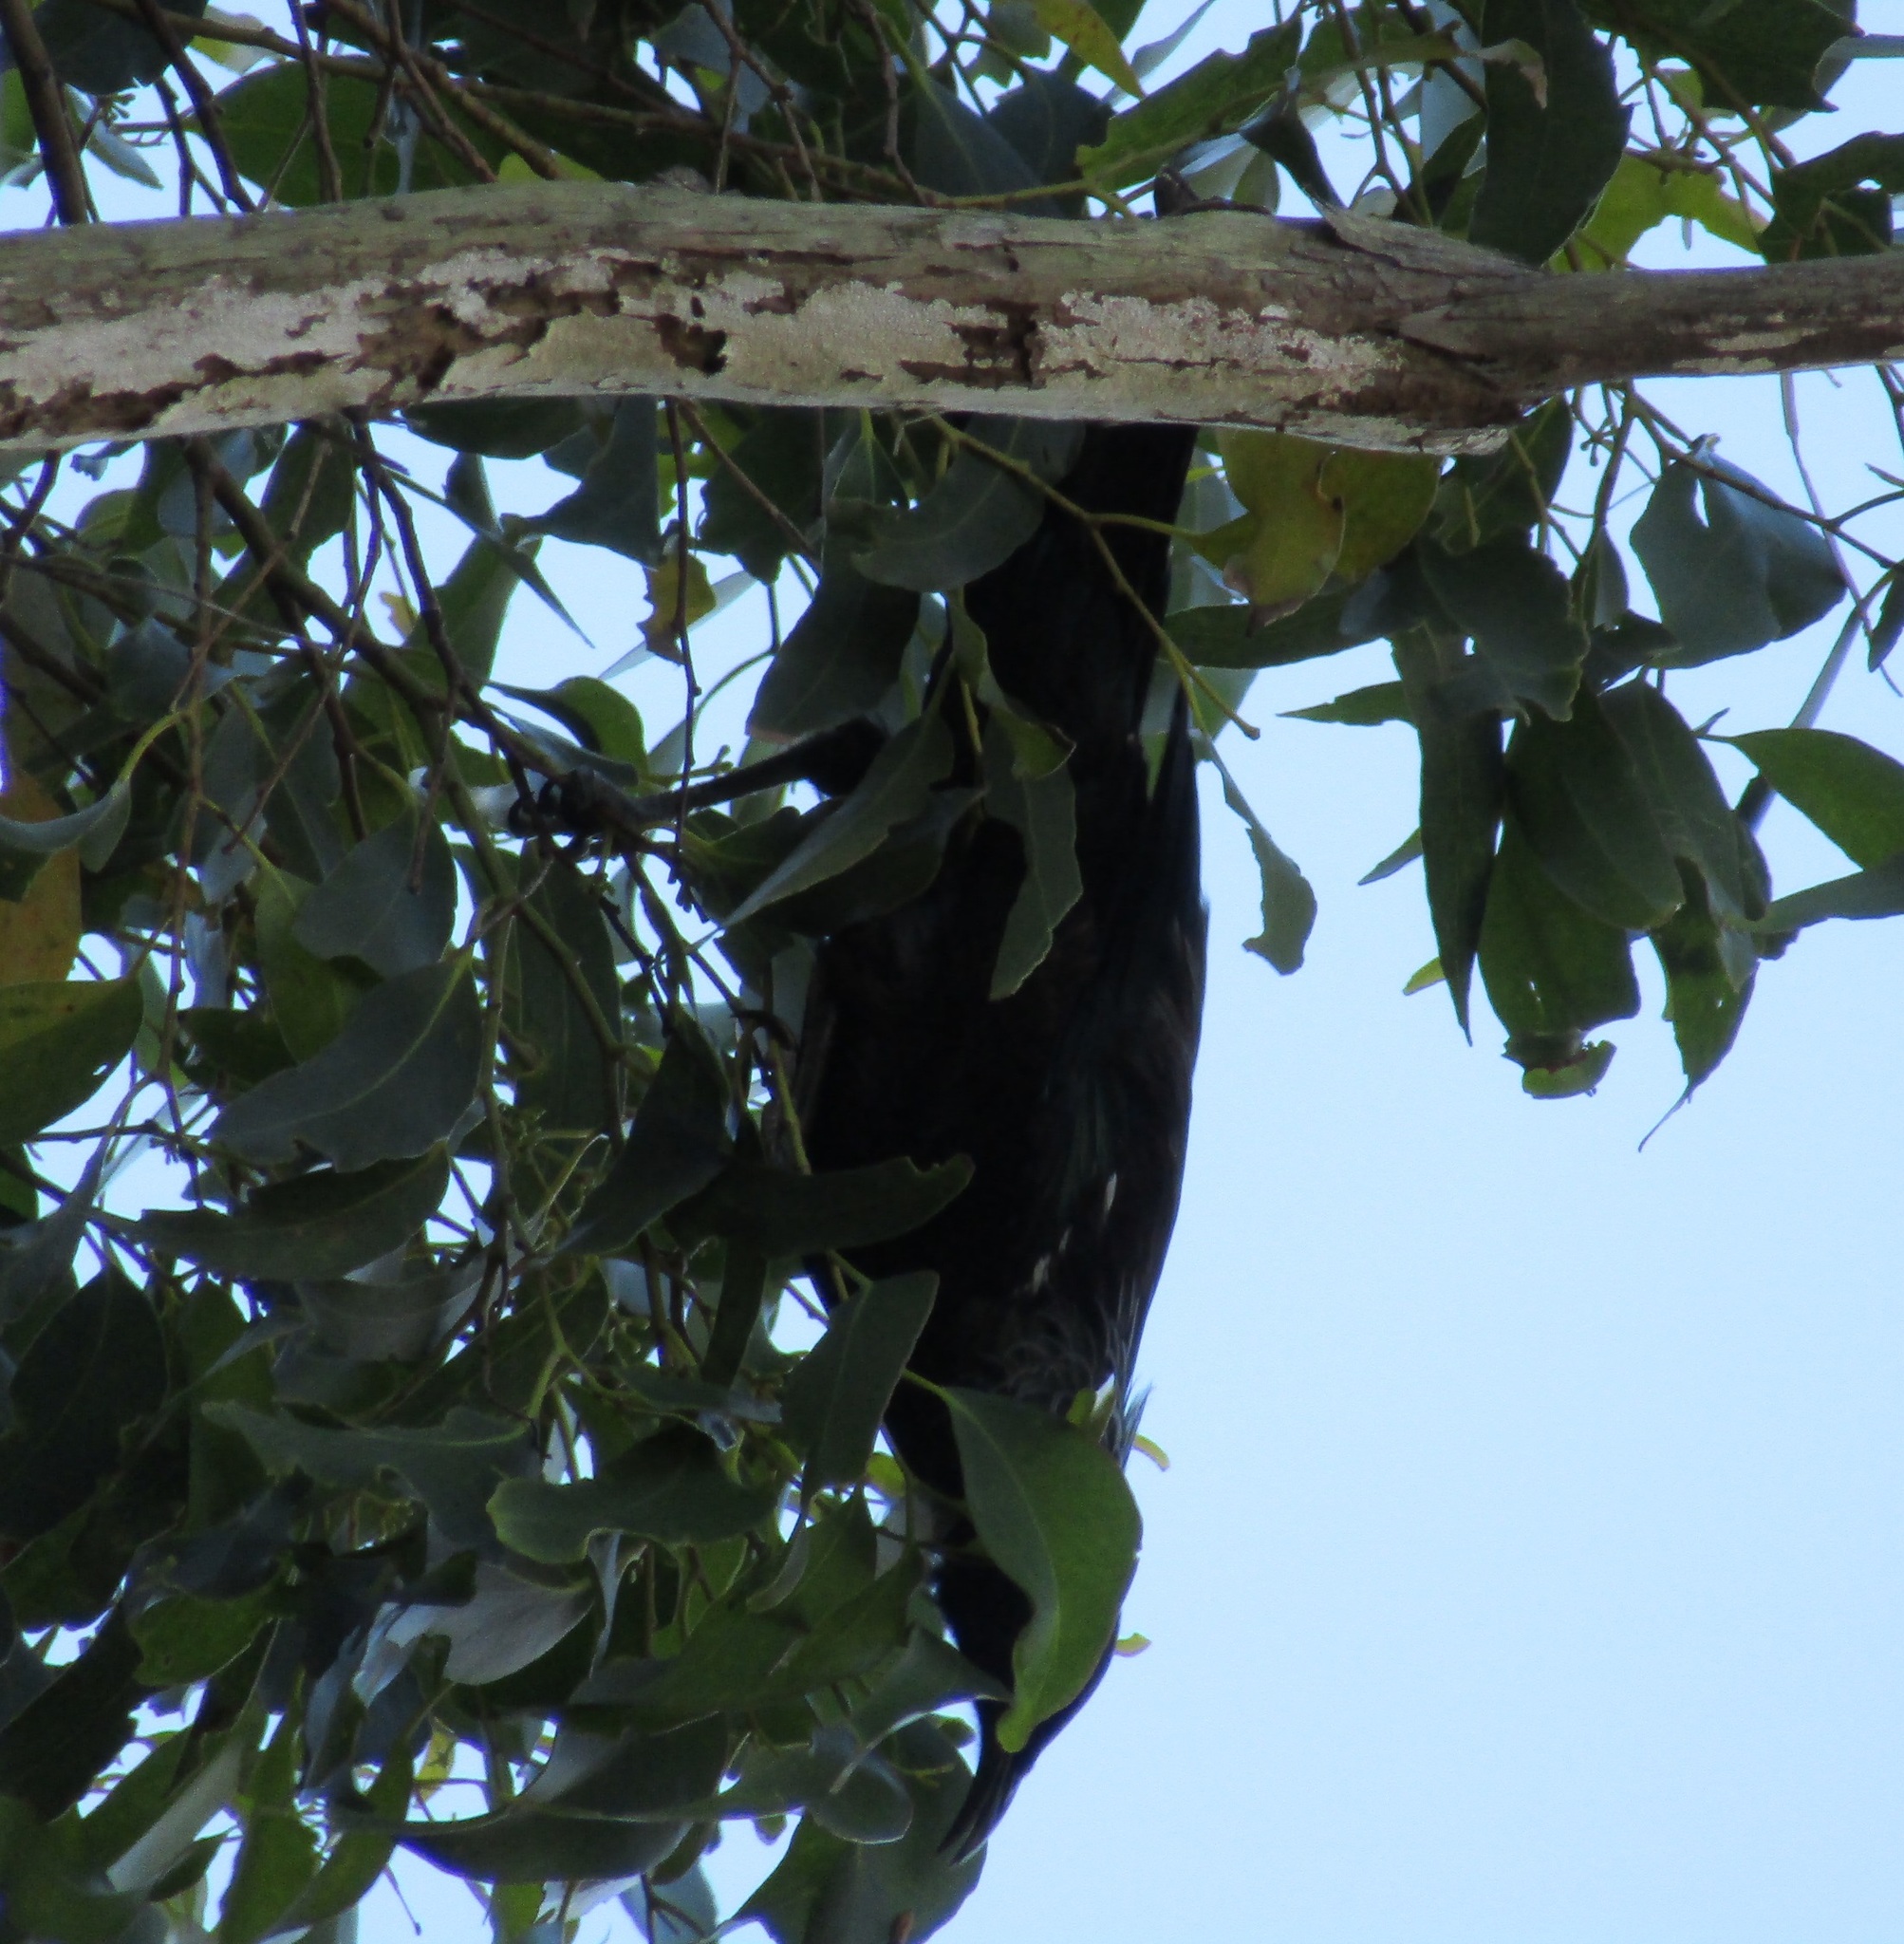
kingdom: Animalia
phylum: Chordata
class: Aves
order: Passeriformes
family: Meliphagidae
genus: Prosthemadera
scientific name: Prosthemadera novaeseelandiae
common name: Tui
